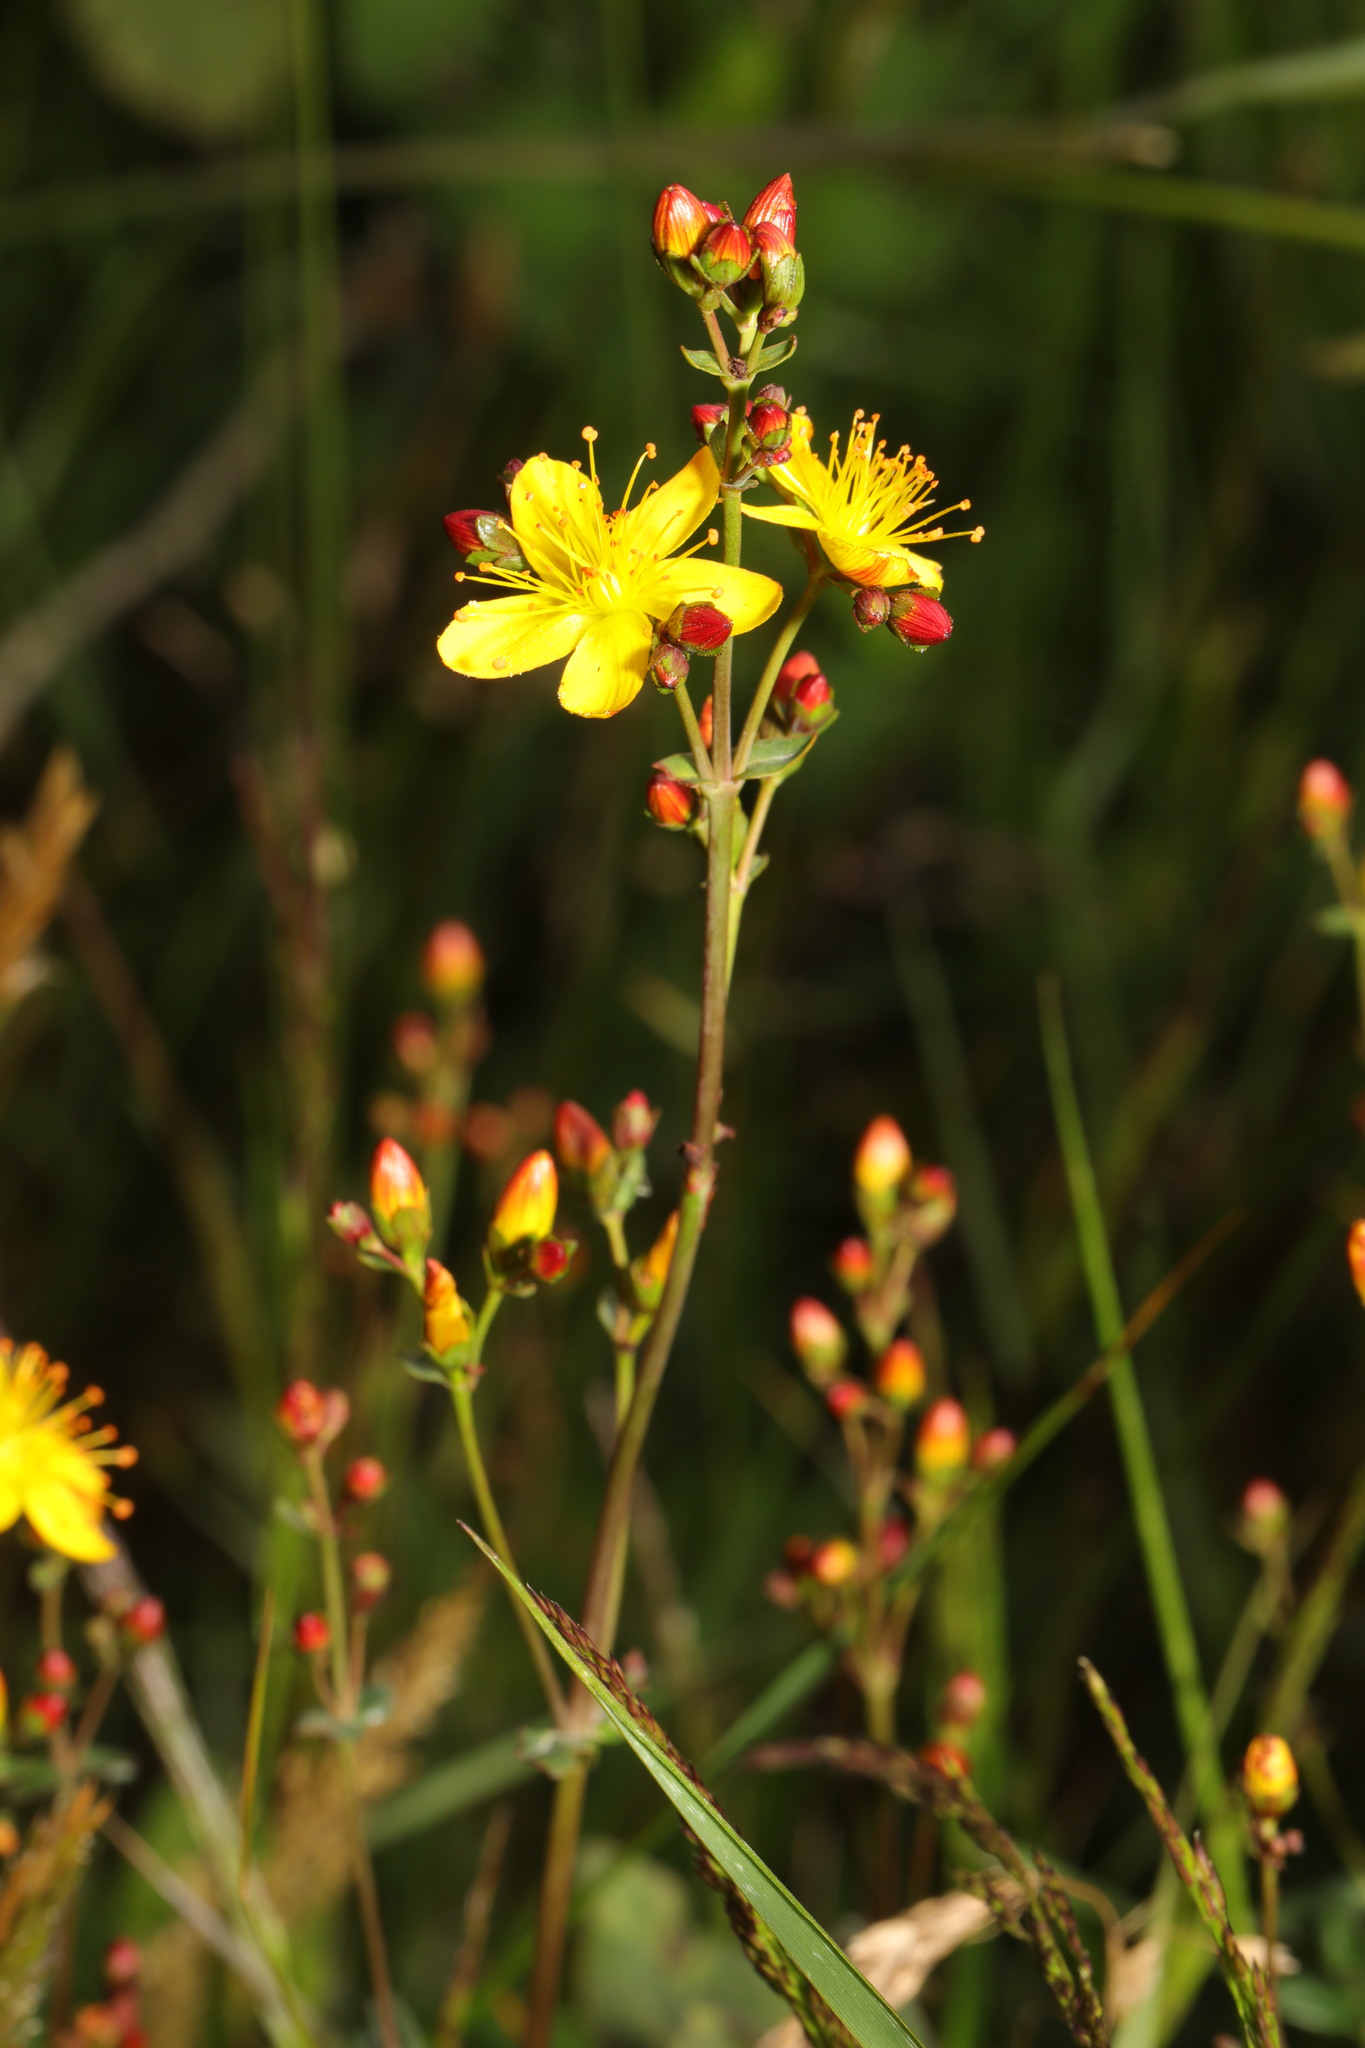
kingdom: Plantae
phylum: Tracheophyta
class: Magnoliopsida
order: Malpighiales
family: Hypericaceae
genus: Hypericum
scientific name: Hypericum pulchrum
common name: Slender st. john's-wort
